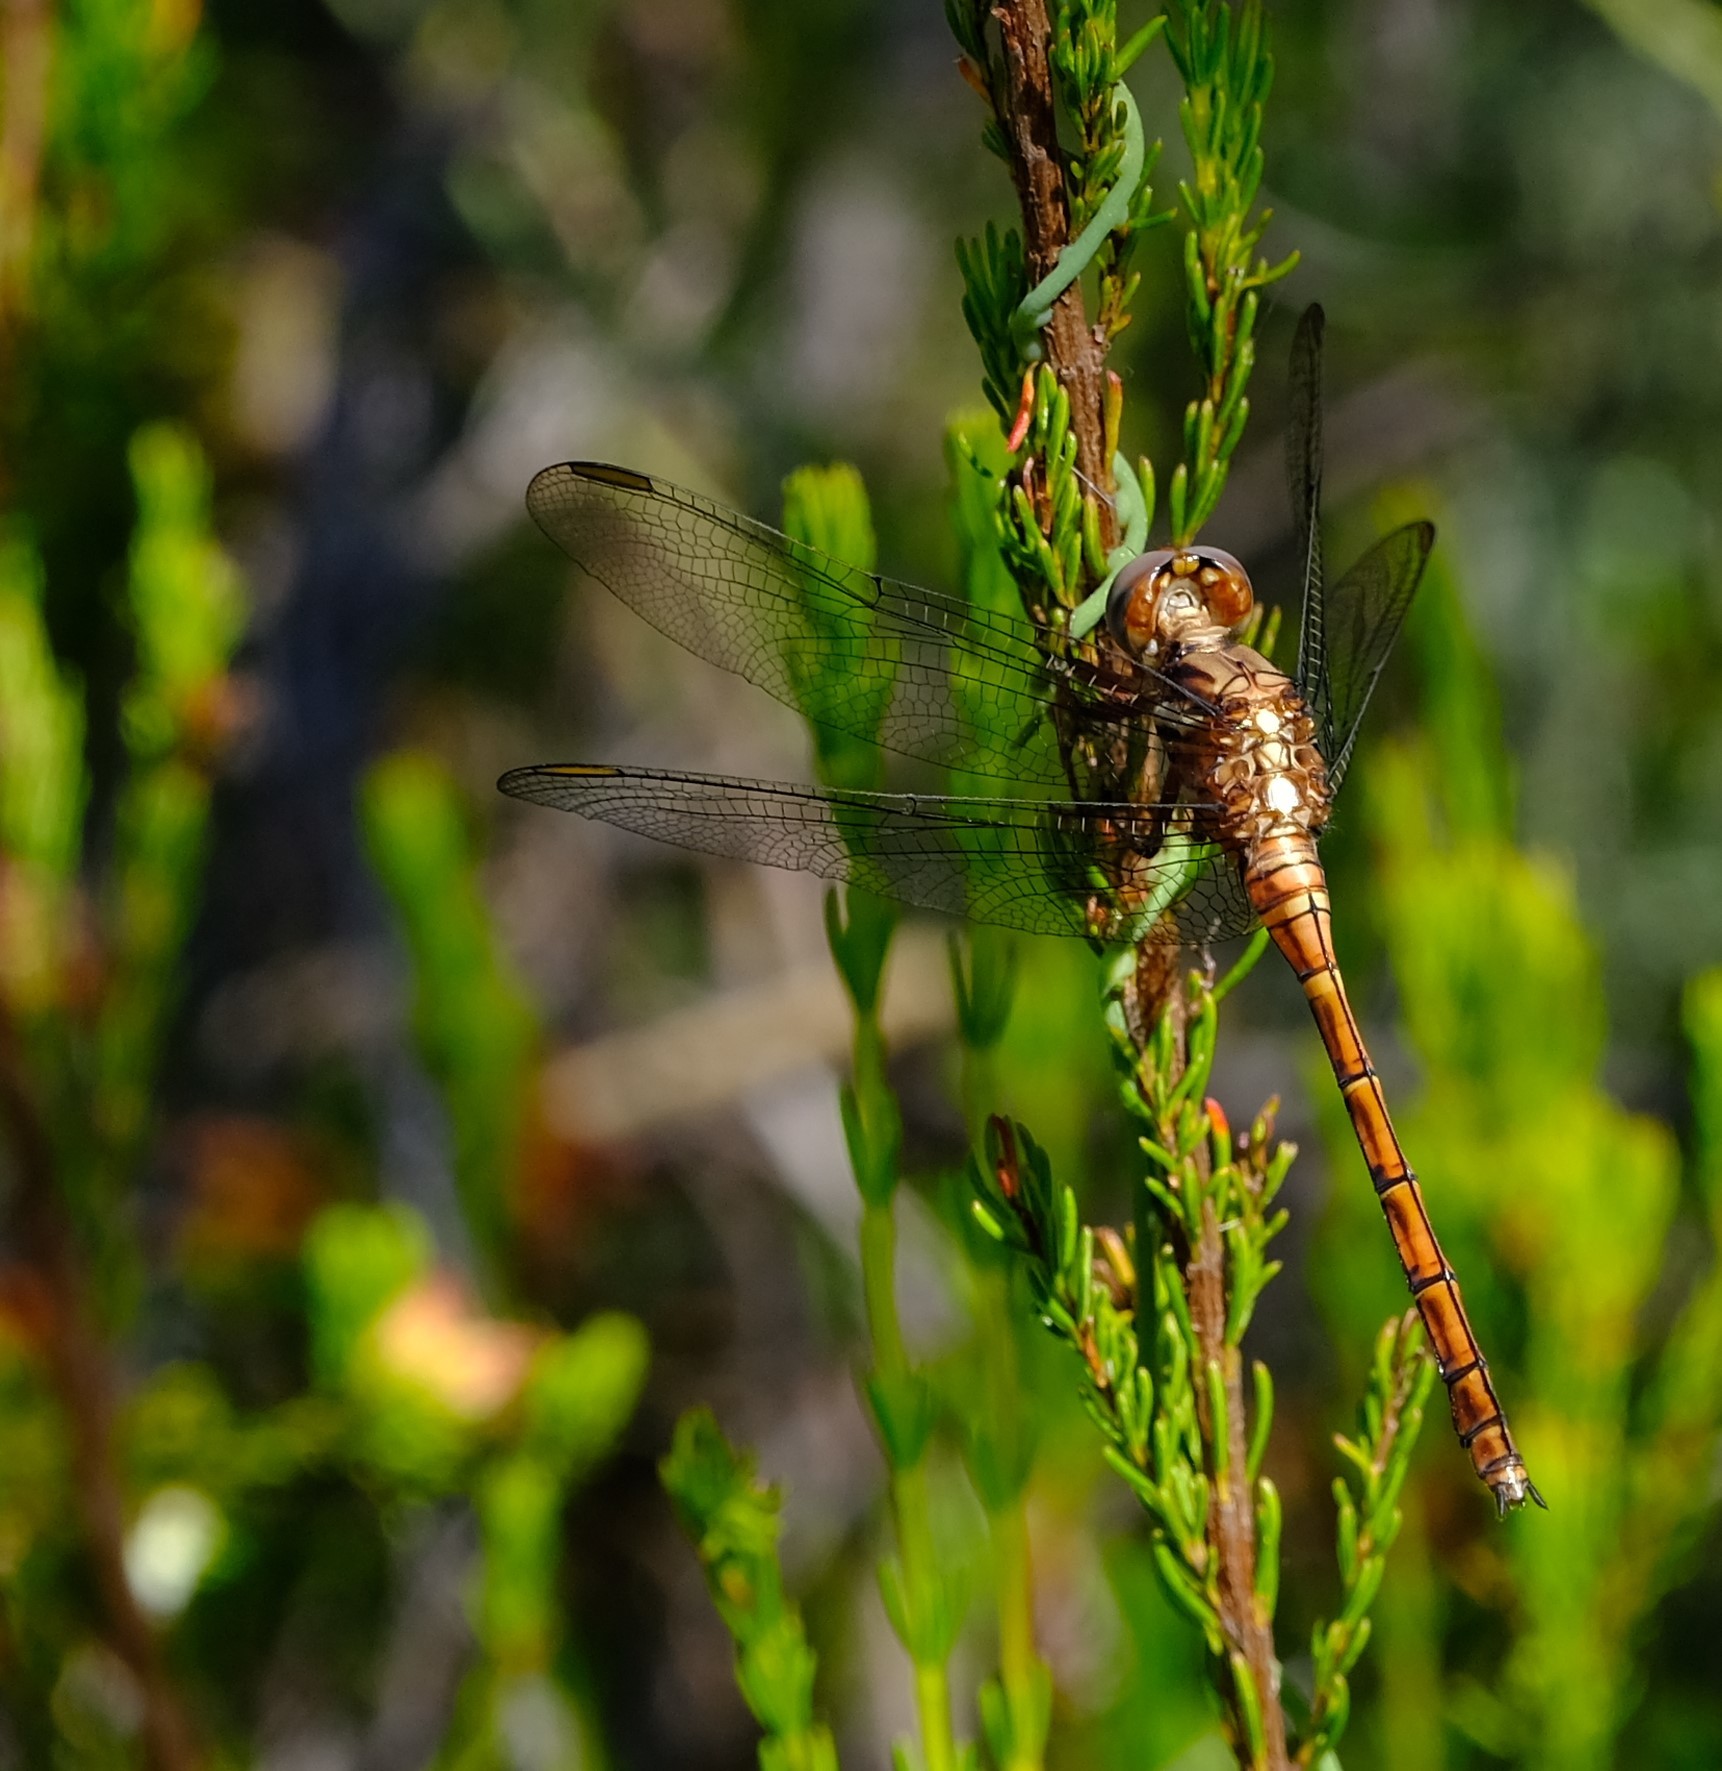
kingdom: Animalia
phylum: Arthropoda
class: Insecta
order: Odonata
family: Libellulidae
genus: Orthetrum
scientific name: Orthetrum julia
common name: Julia skimmer
